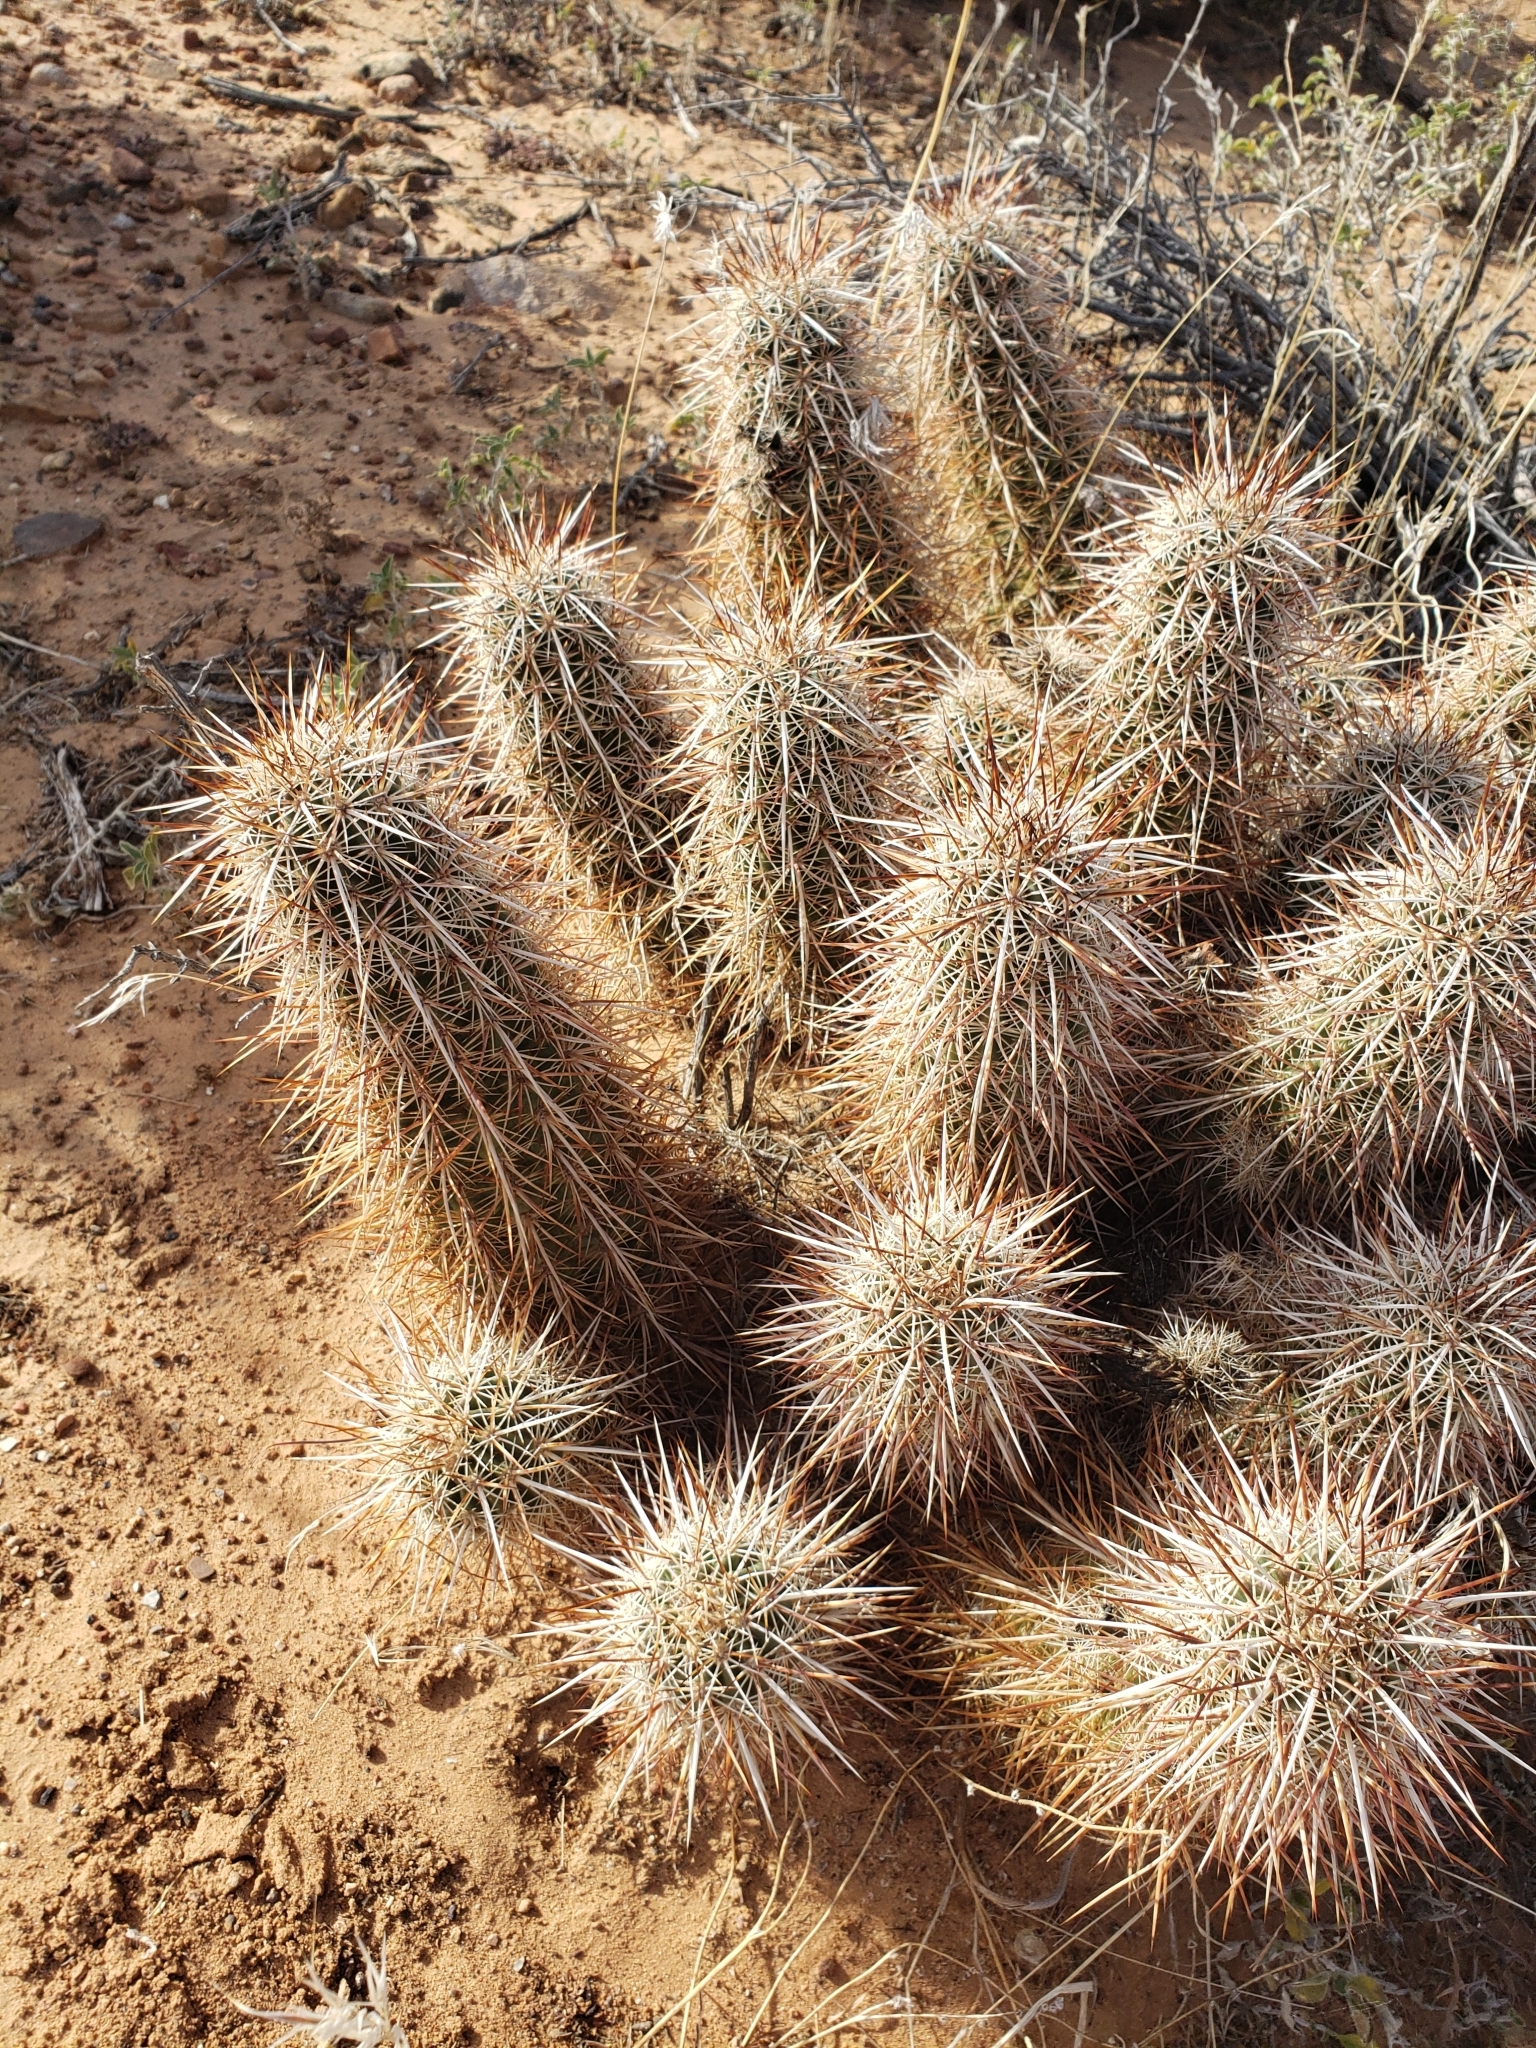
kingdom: Plantae
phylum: Tracheophyta
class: Magnoliopsida
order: Caryophyllales
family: Cactaceae
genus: Echinocereus
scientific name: Echinocereus engelmannii
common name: Engelmann's hedgehog cactus
